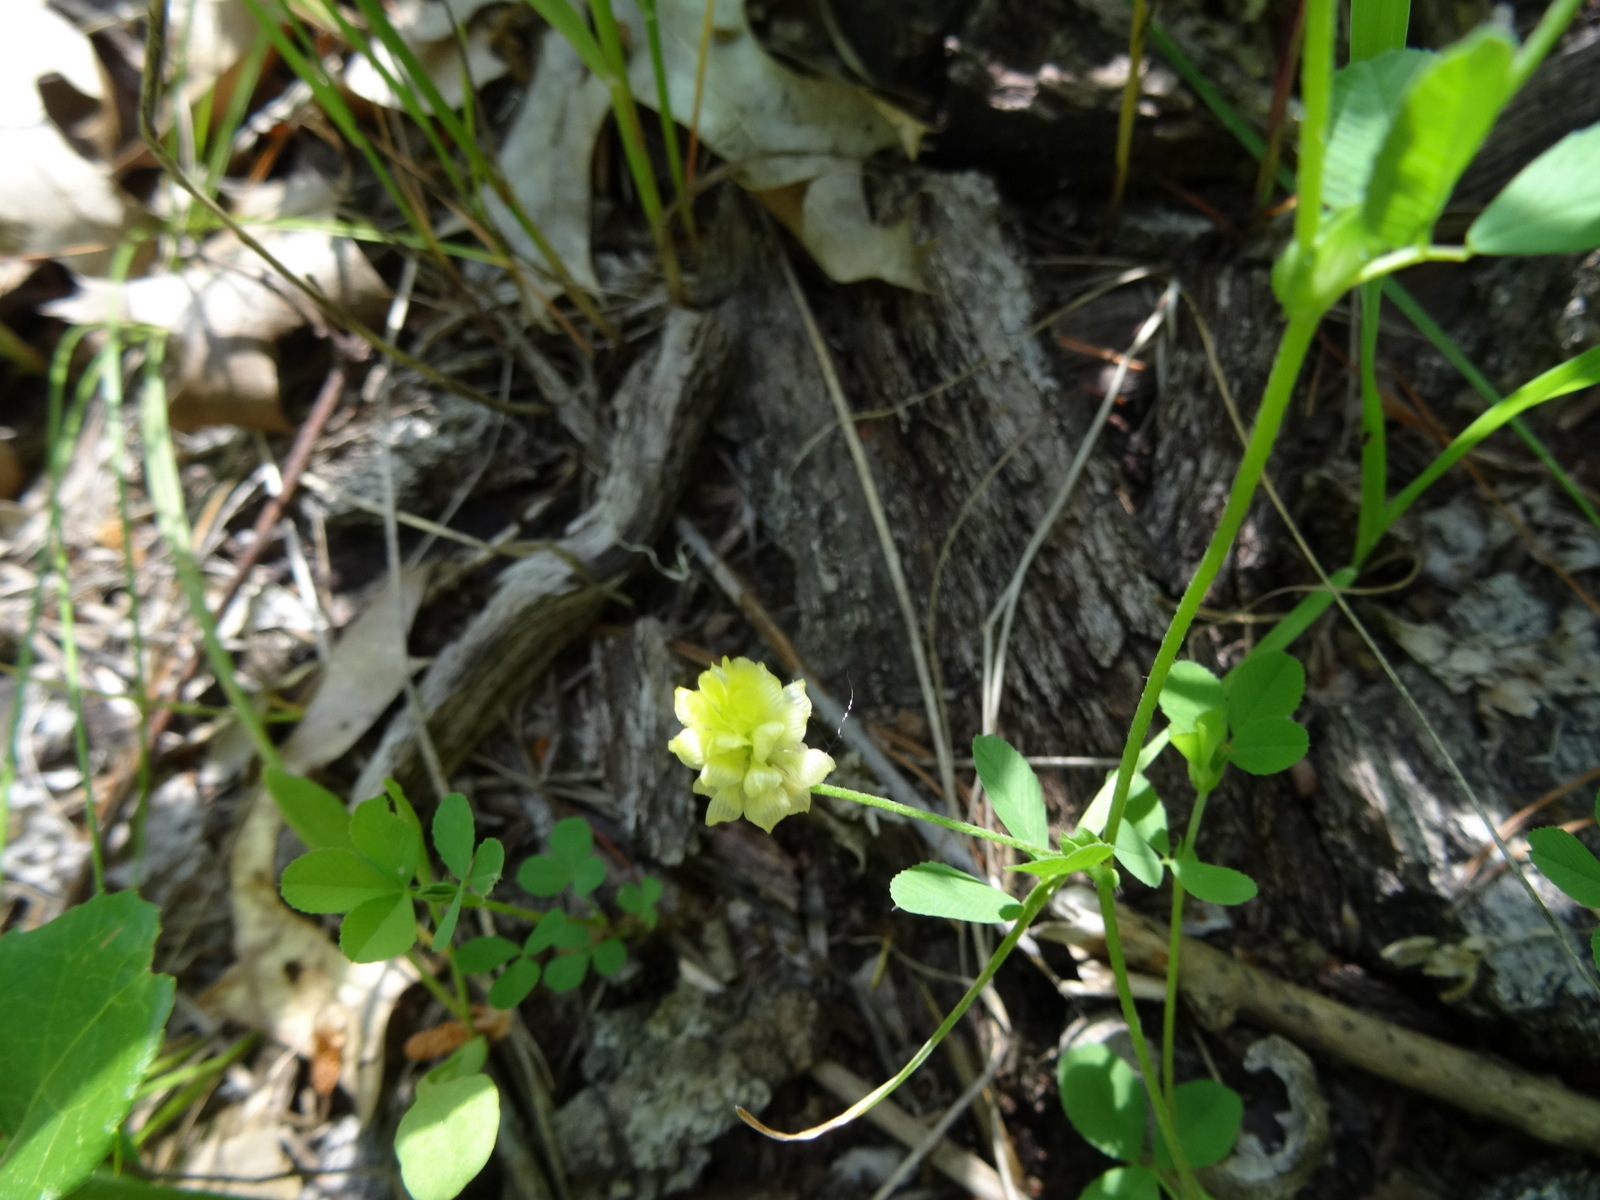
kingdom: Plantae
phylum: Tracheophyta
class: Magnoliopsida
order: Fabales
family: Fabaceae
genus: Trifolium
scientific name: Trifolium campestre
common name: Field clover
